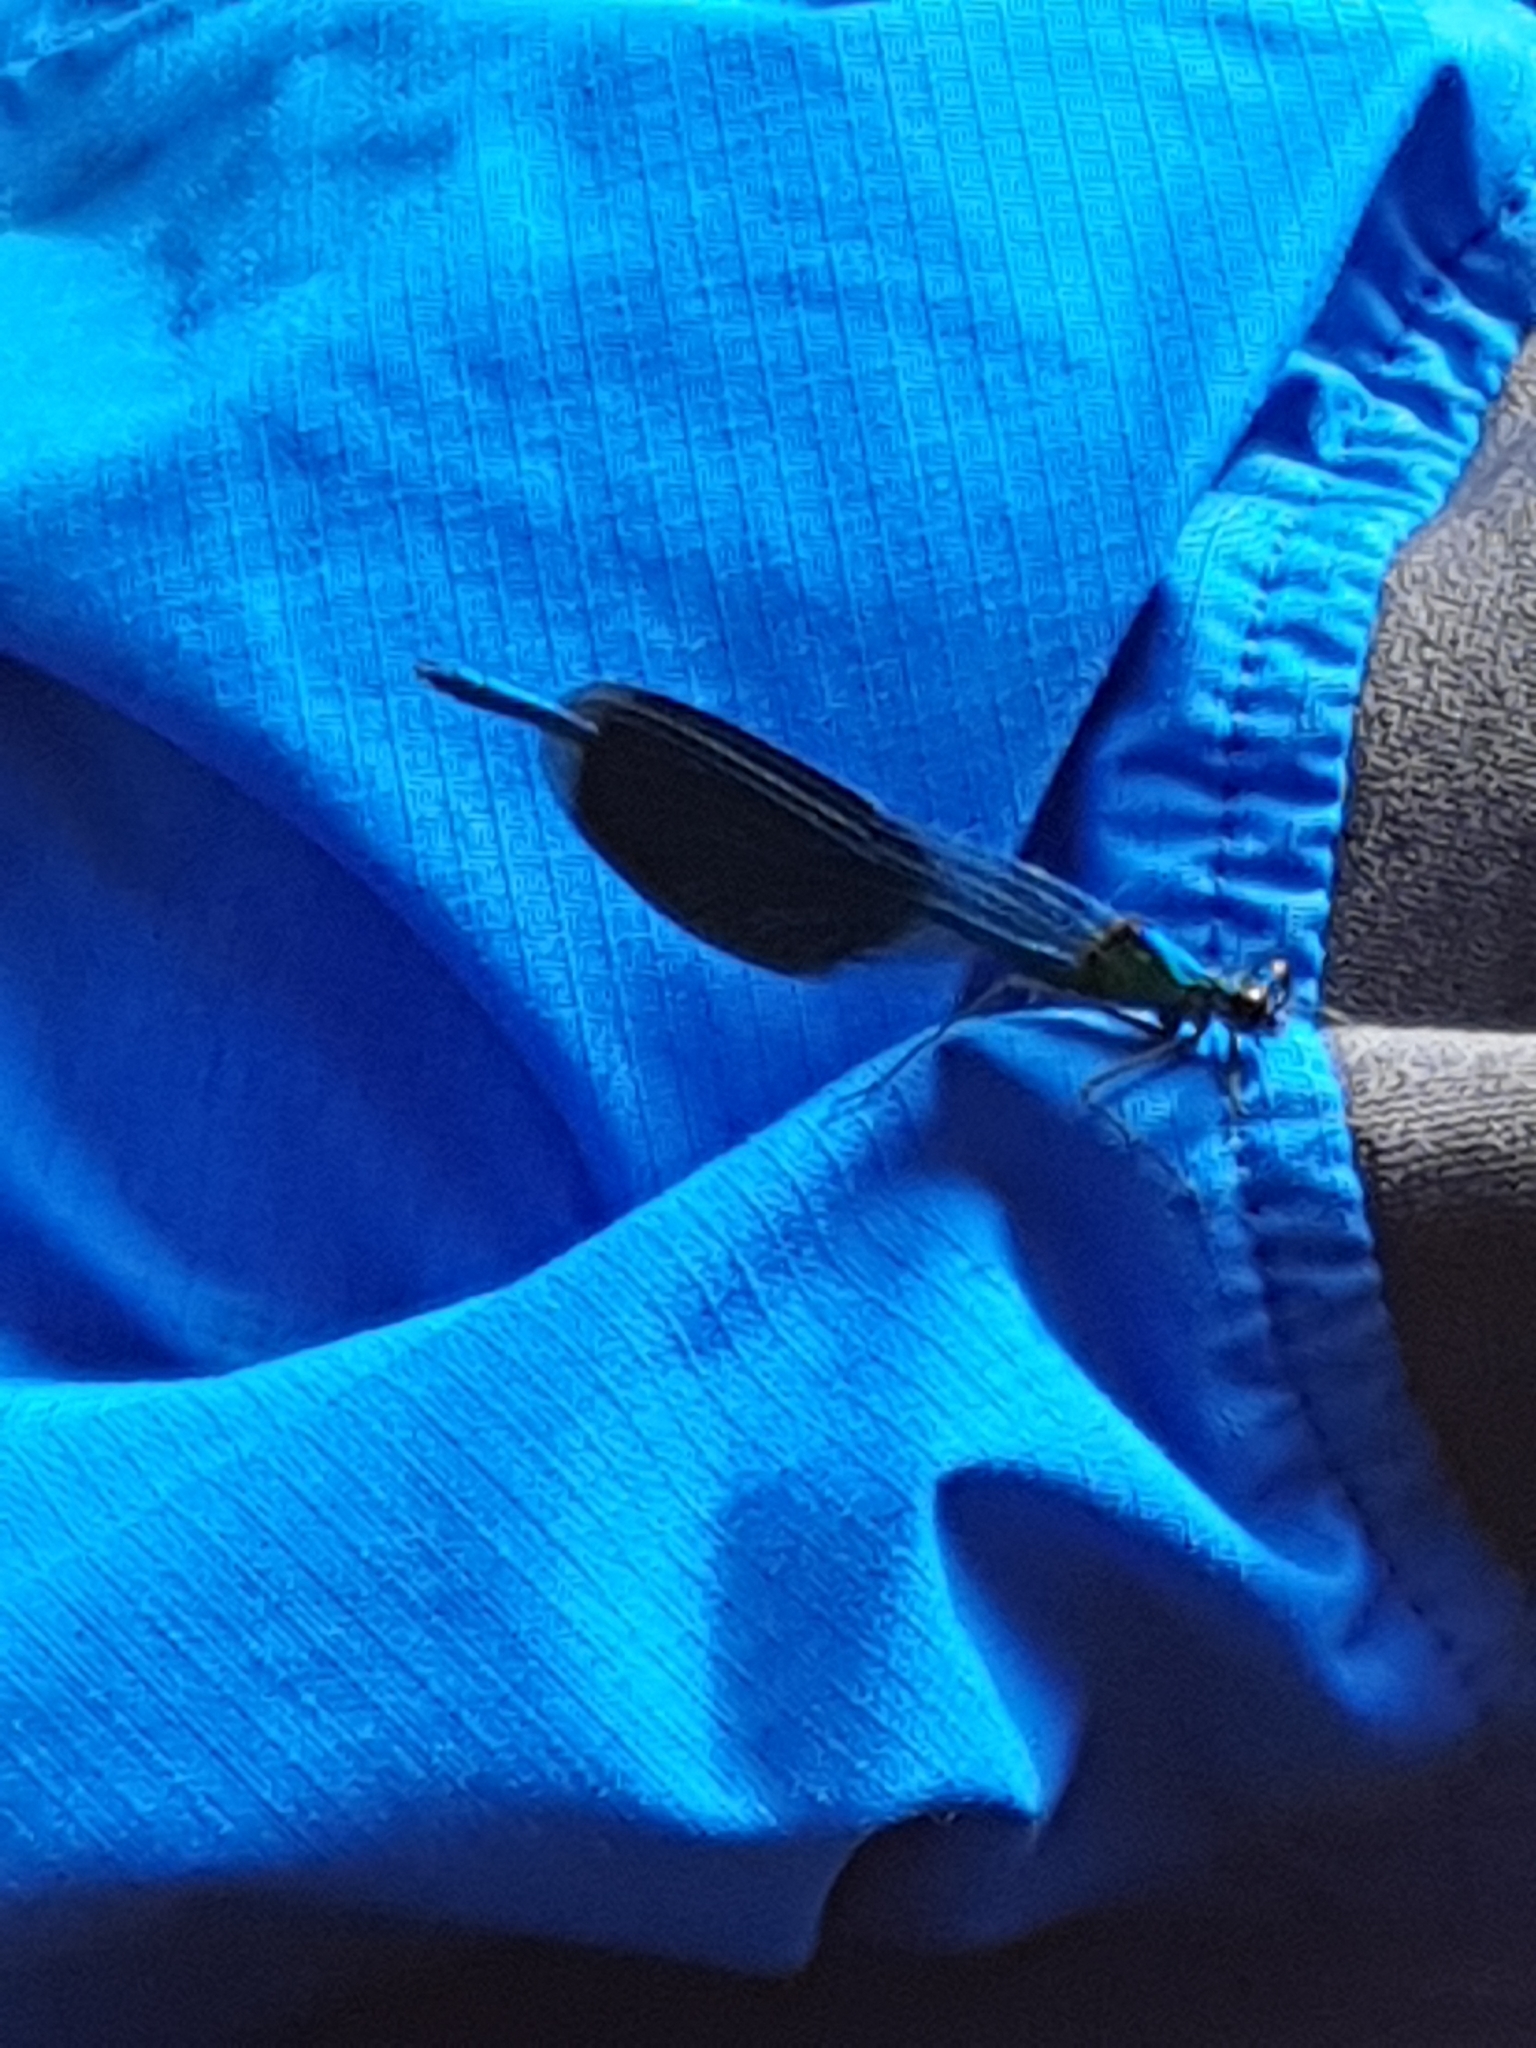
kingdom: Animalia
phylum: Arthropoda
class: Insecta
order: Odonata
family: Calopterygidae
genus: Calopteryx
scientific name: Calopteryx splendens
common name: Banded demoiselle
